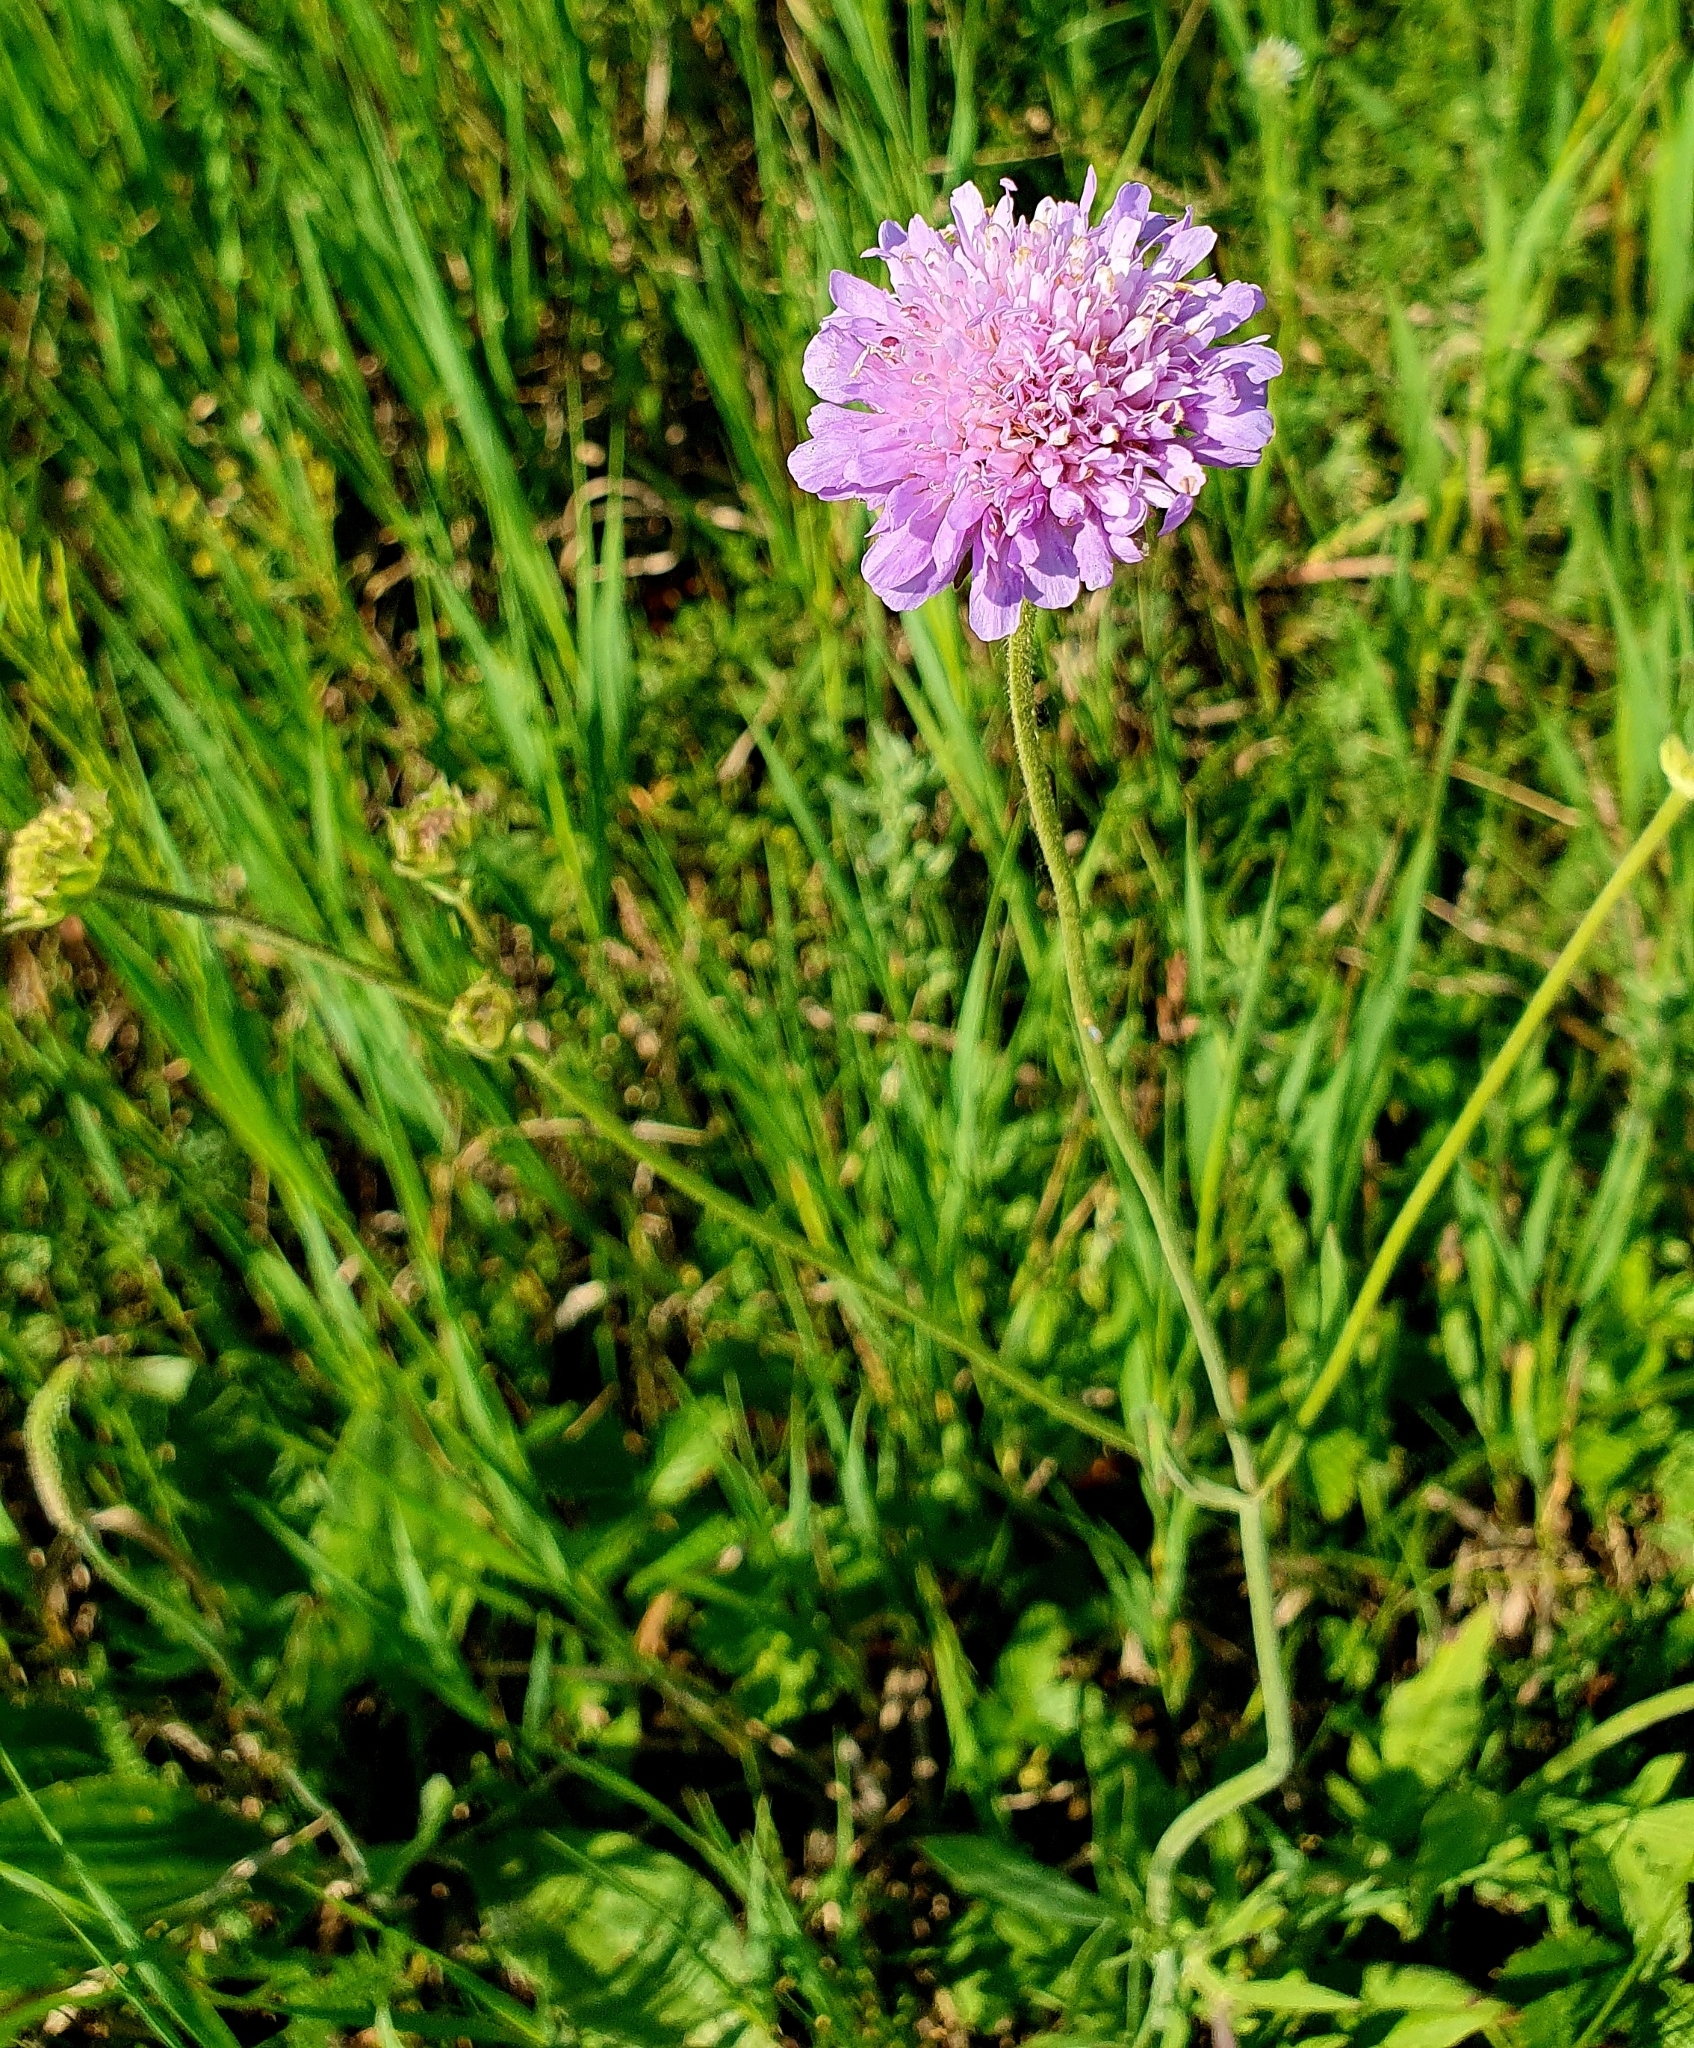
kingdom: Plantae
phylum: Tracheophyta
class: Magnoliopsida
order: Dipsacales
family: Caprifoliaceae
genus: Knautia
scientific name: Knautia arvensis
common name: Field scabiosa
